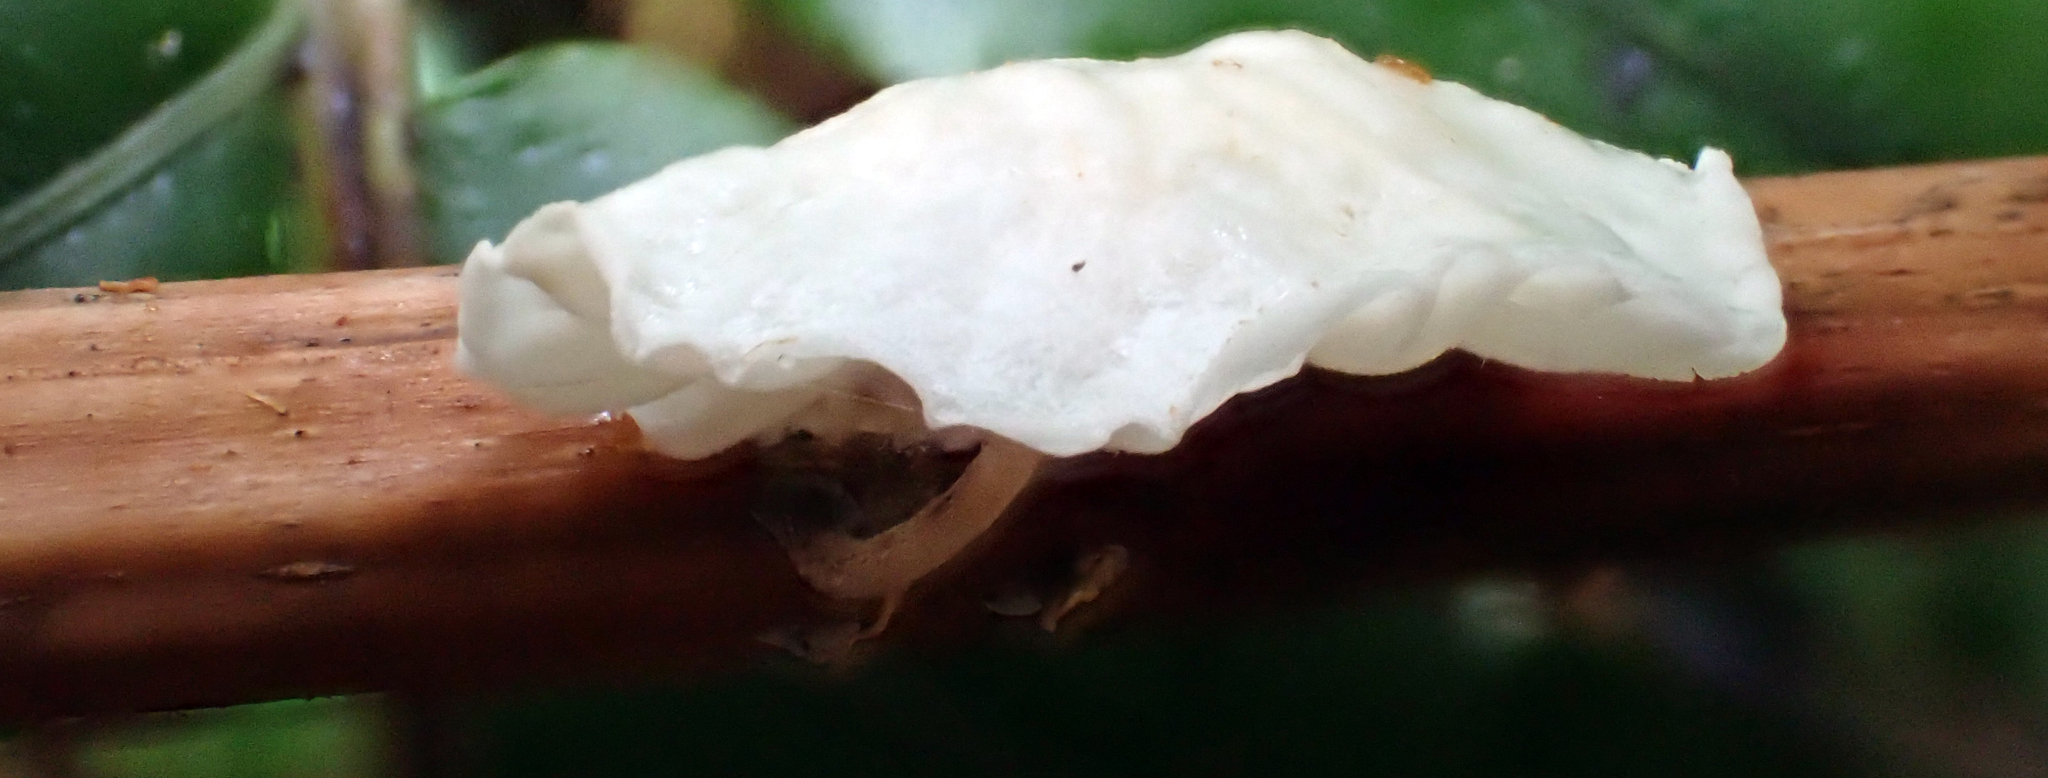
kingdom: Fungi
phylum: Basidiomycota
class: Agaricomycetes
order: Agaricales
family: Porotheleaceae
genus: Porotheleum
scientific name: Porotheleum albodescendens
